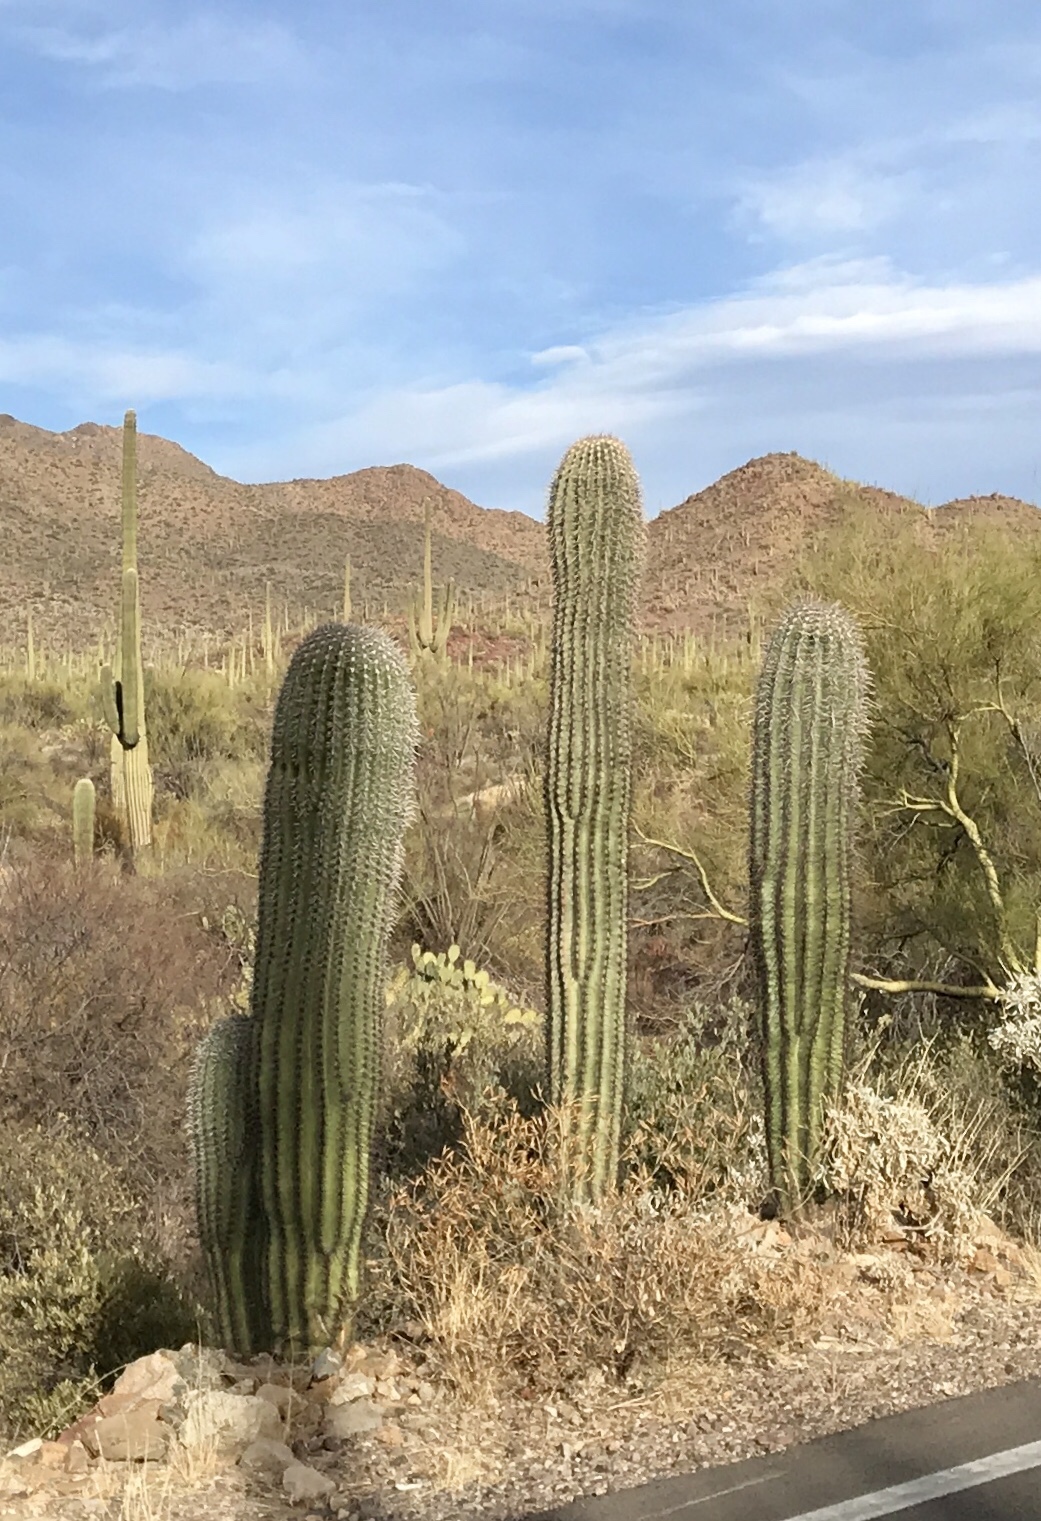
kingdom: Plantae
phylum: Tracheophyta
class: Magnoliopsida
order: Caryophyllales
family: Cactaceae
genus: Carnegiea
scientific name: Carnegiea gigantea
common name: Saguaro
